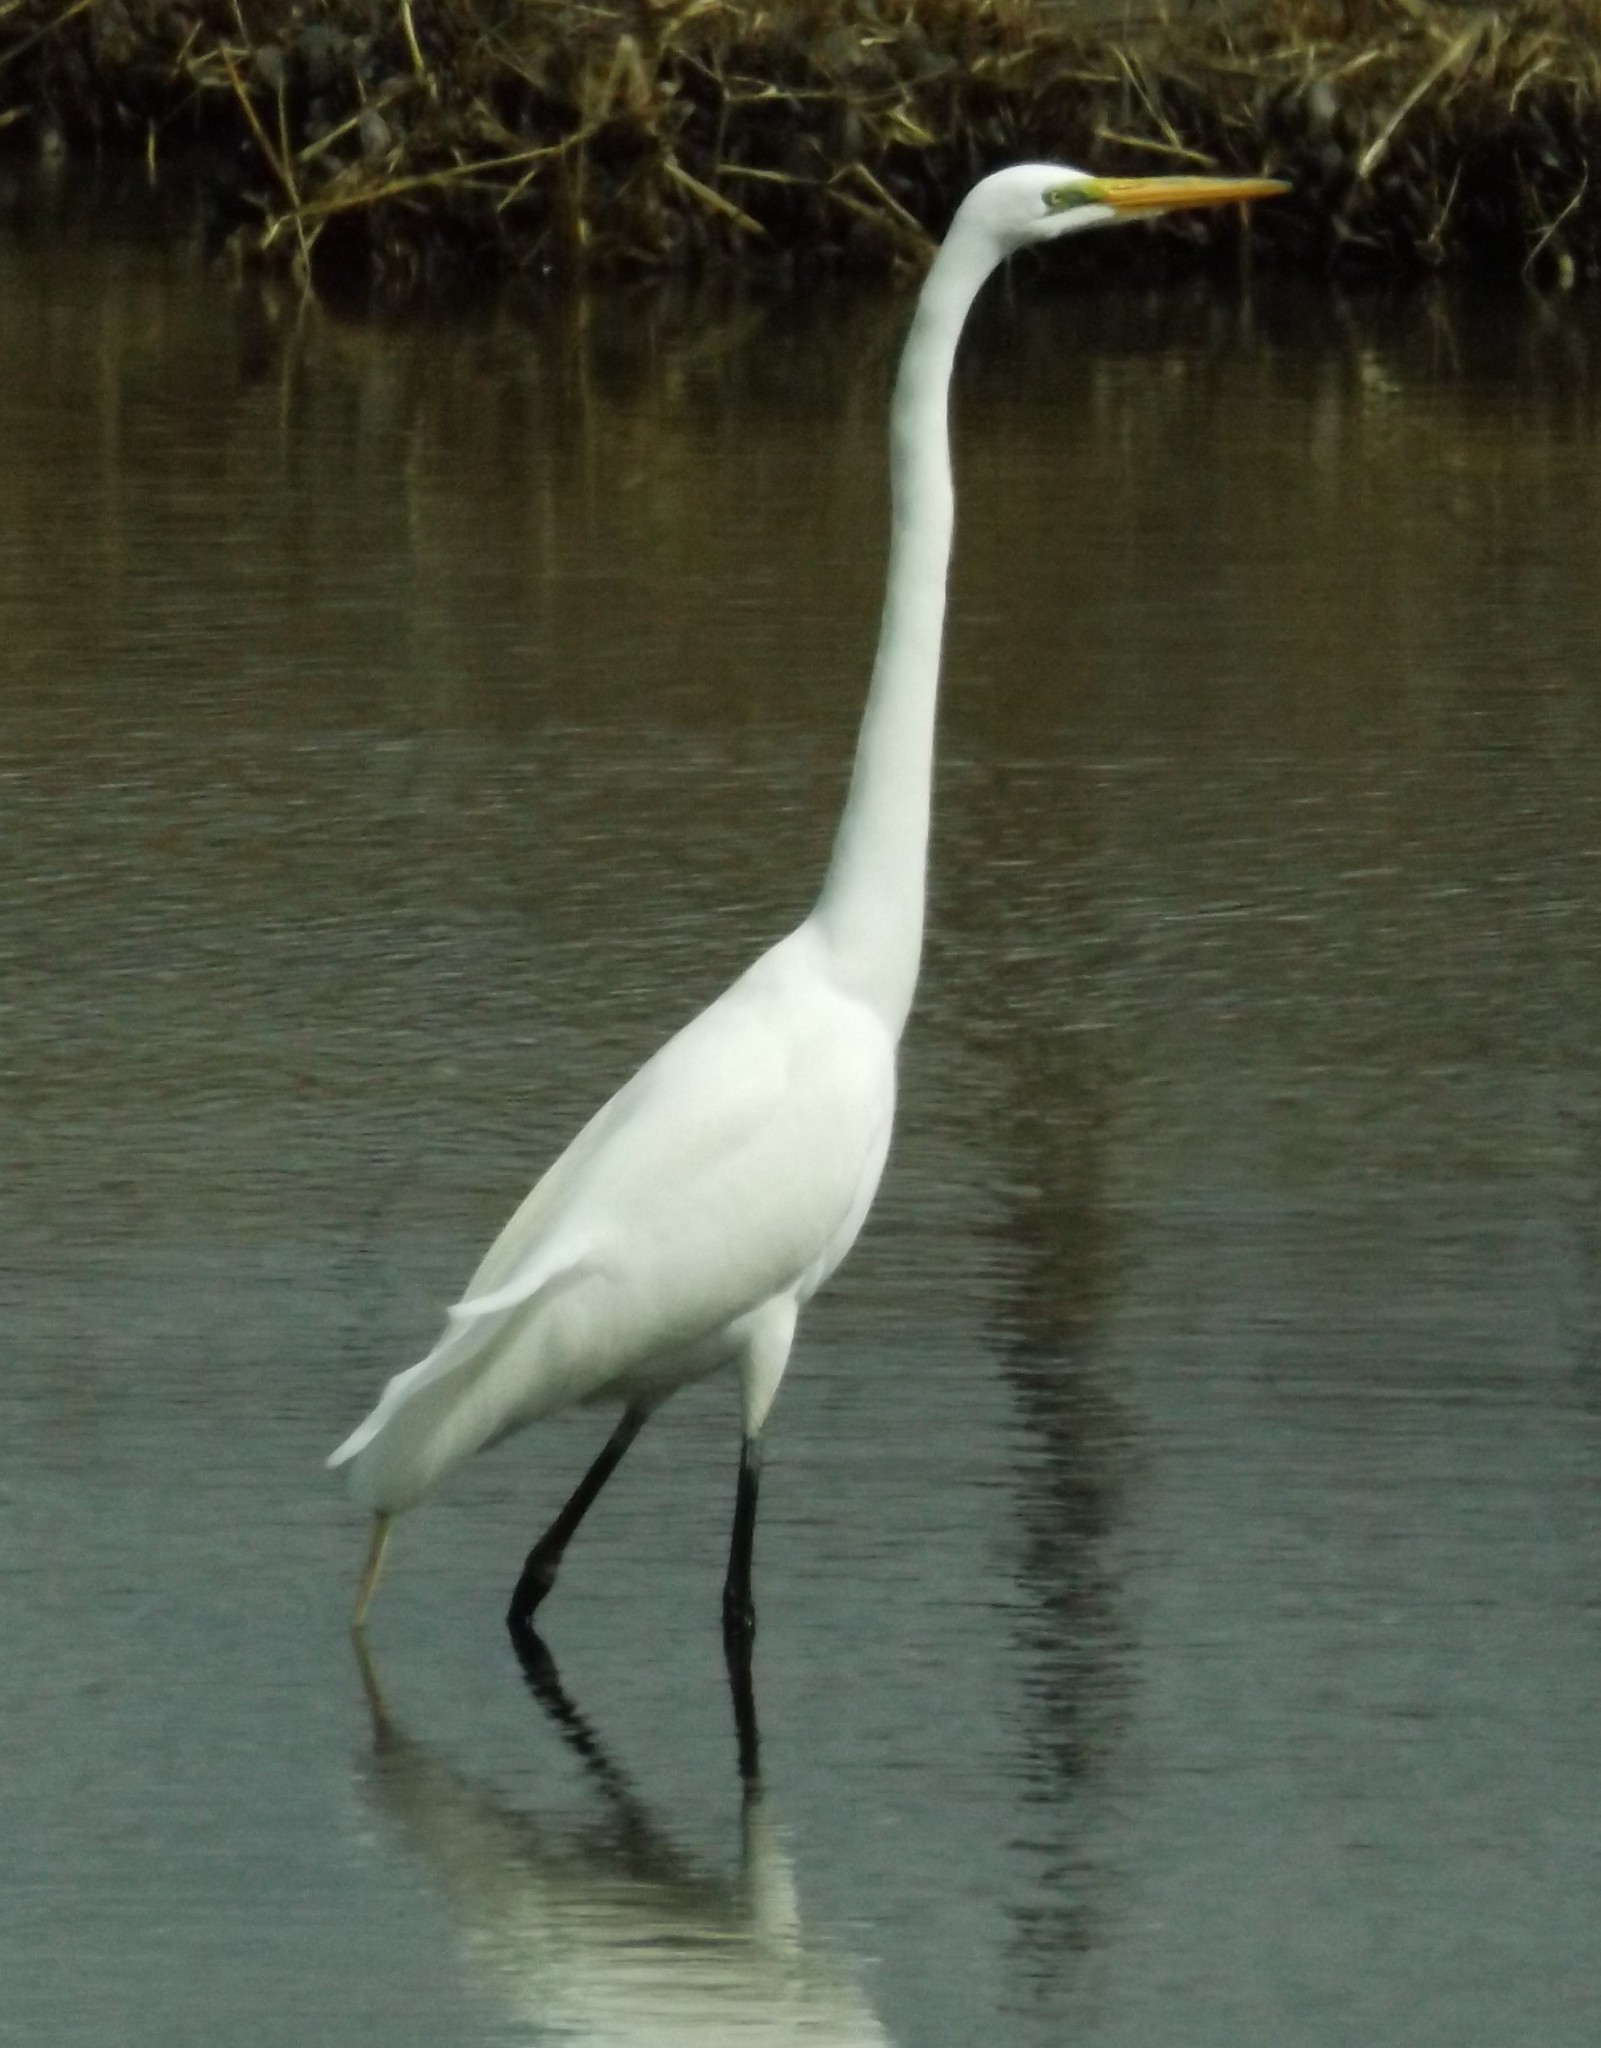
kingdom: Animalia
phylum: Chordata
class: Aves
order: Pelecaniformes
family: Ardeidae
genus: Ardea
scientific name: Ardea alba
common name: Great egret
